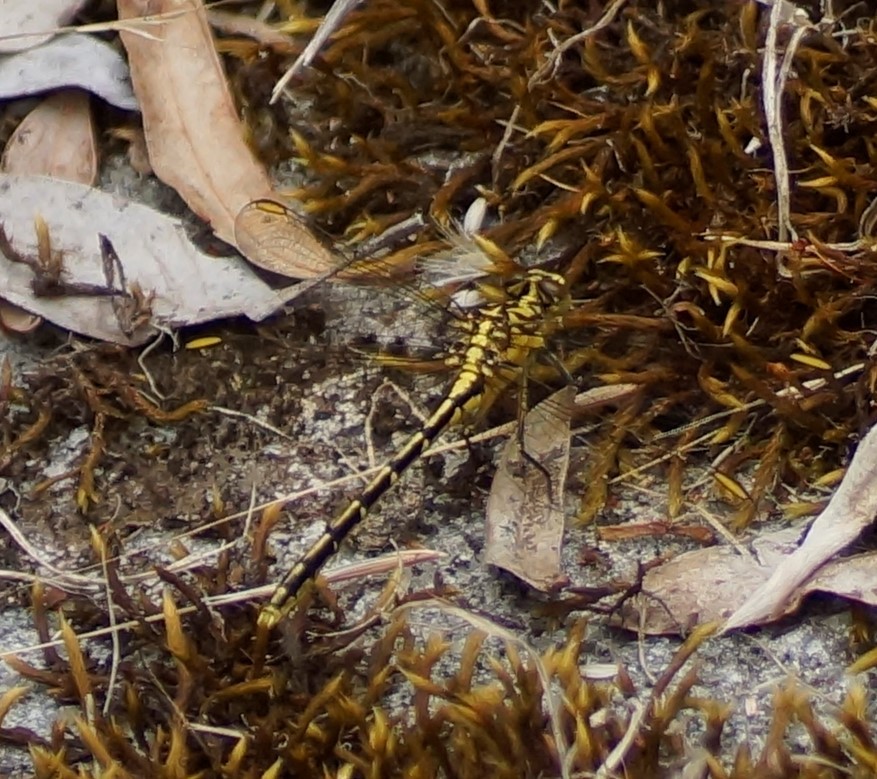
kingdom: Animalia
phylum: Arthropoda
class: Insecta
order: Odonata
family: Gomphidae
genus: Austrogomphus
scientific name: Austrogomphus guerini
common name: Yellow-striped hunter
